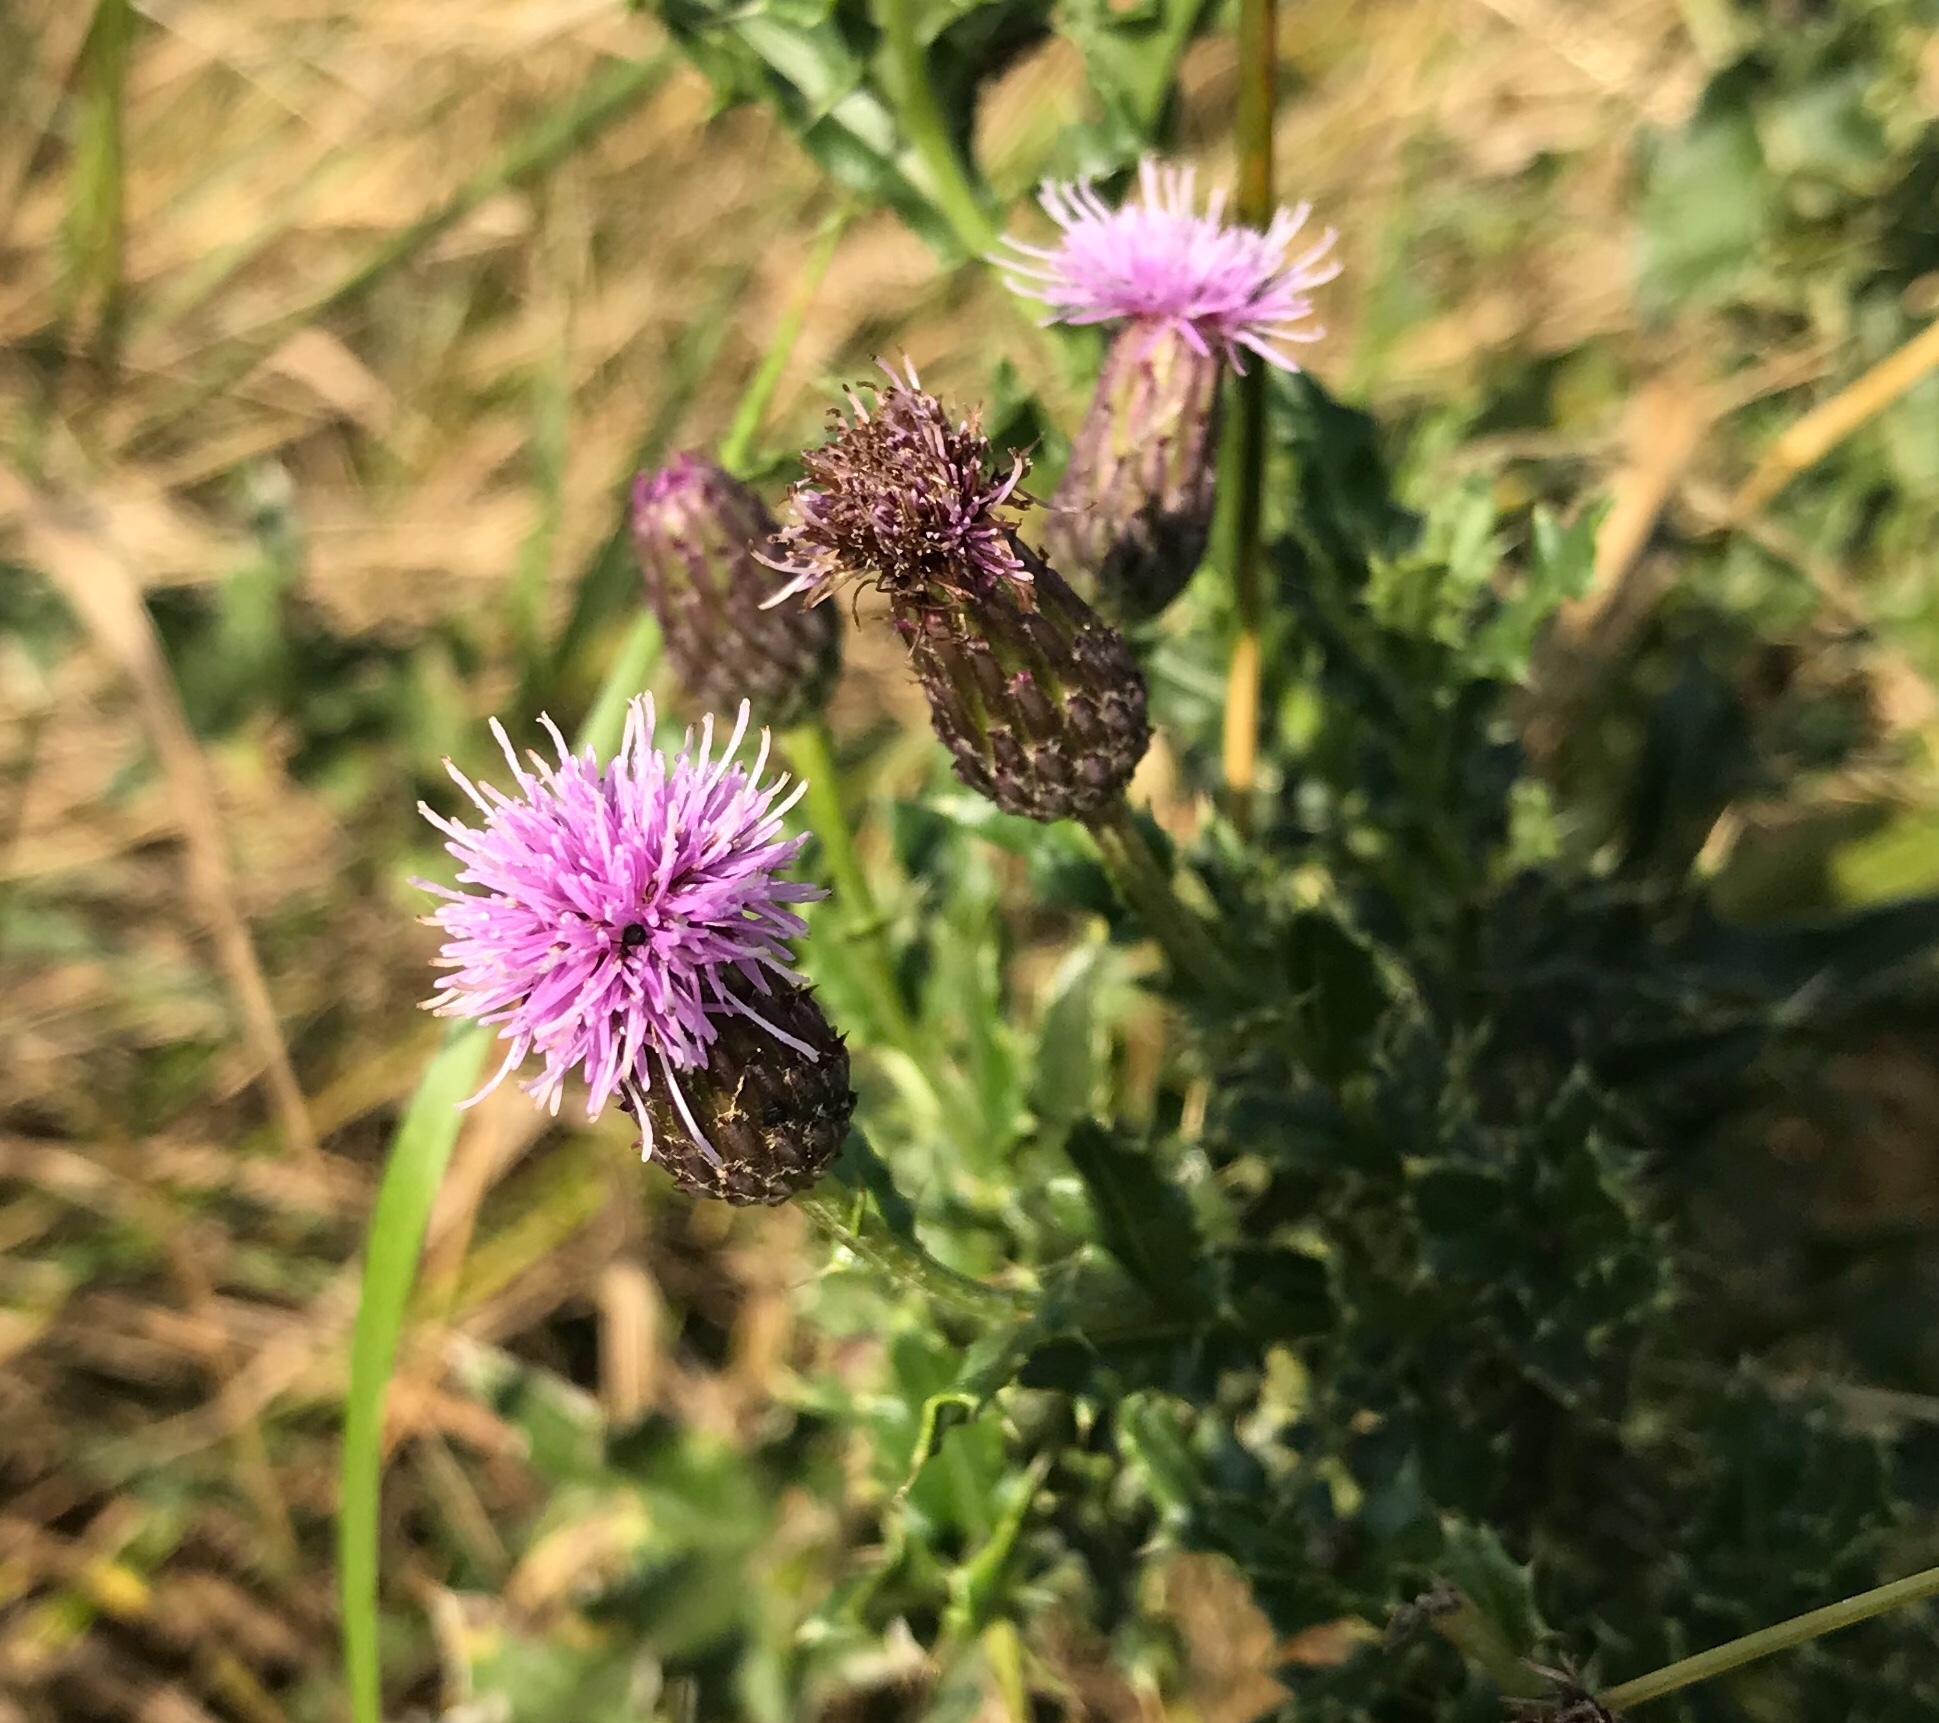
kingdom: Plantae
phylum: Tracheophyta
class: Magnoliopsida
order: Asterales
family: Asteraceae
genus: Cirsium
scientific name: Cirsium arvense
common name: Creeping thistle
